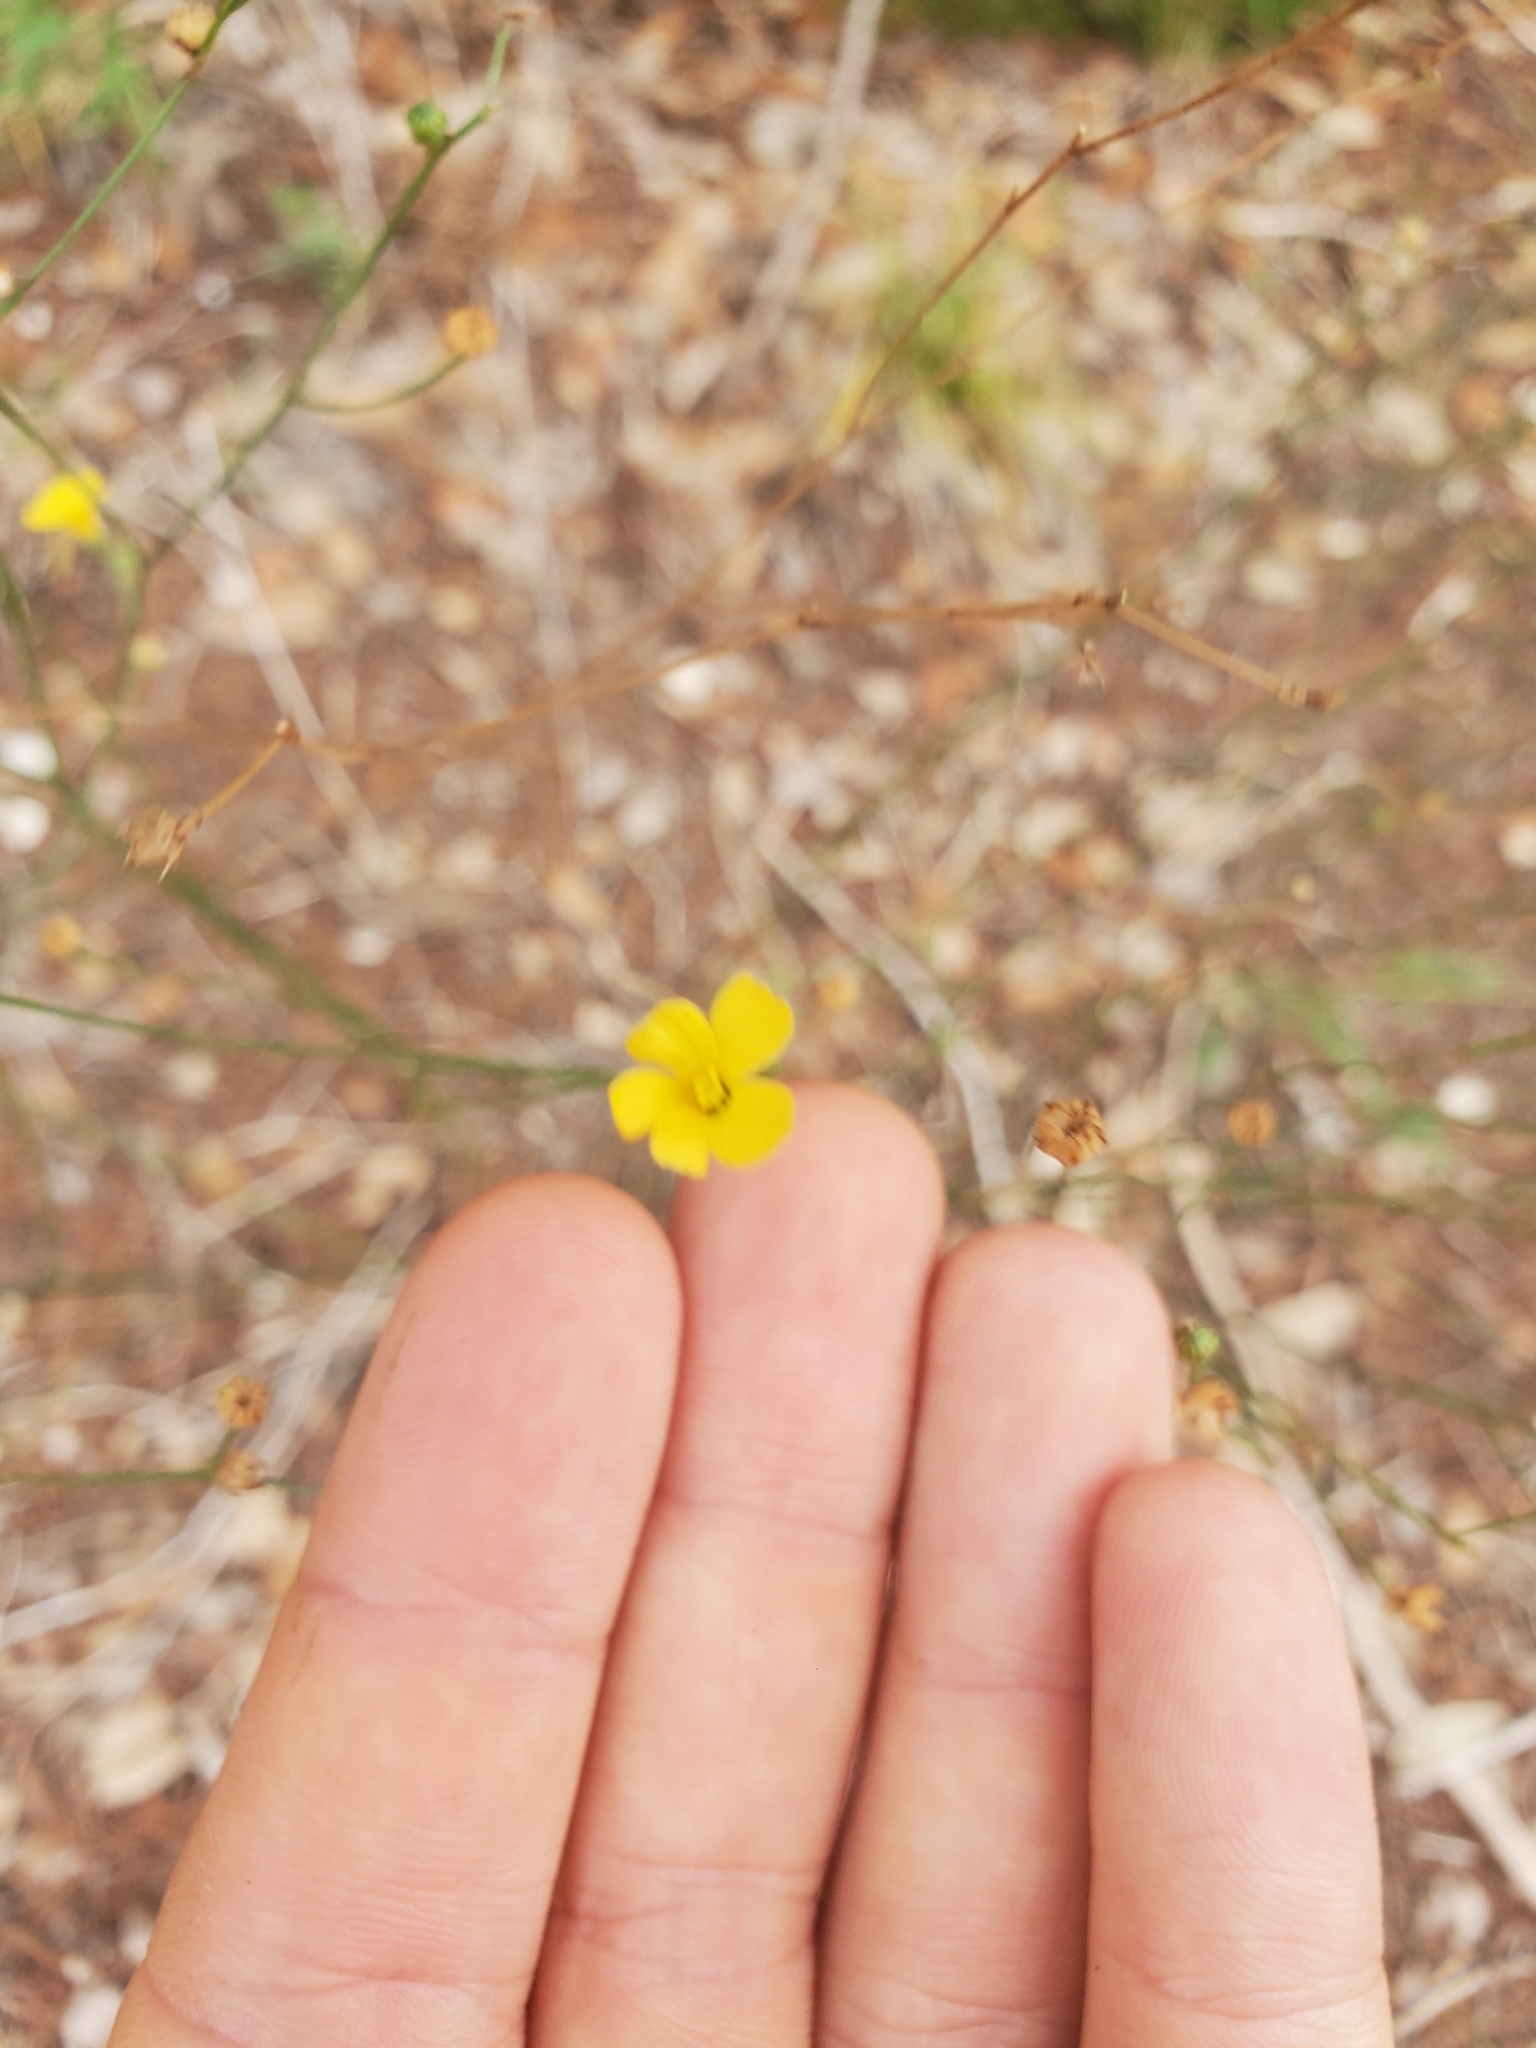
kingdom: Plantae
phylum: Tracheophyta
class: Magnoliopsida
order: Malpighiales
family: Linaceae
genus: Linum
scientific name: Linum rupestre
